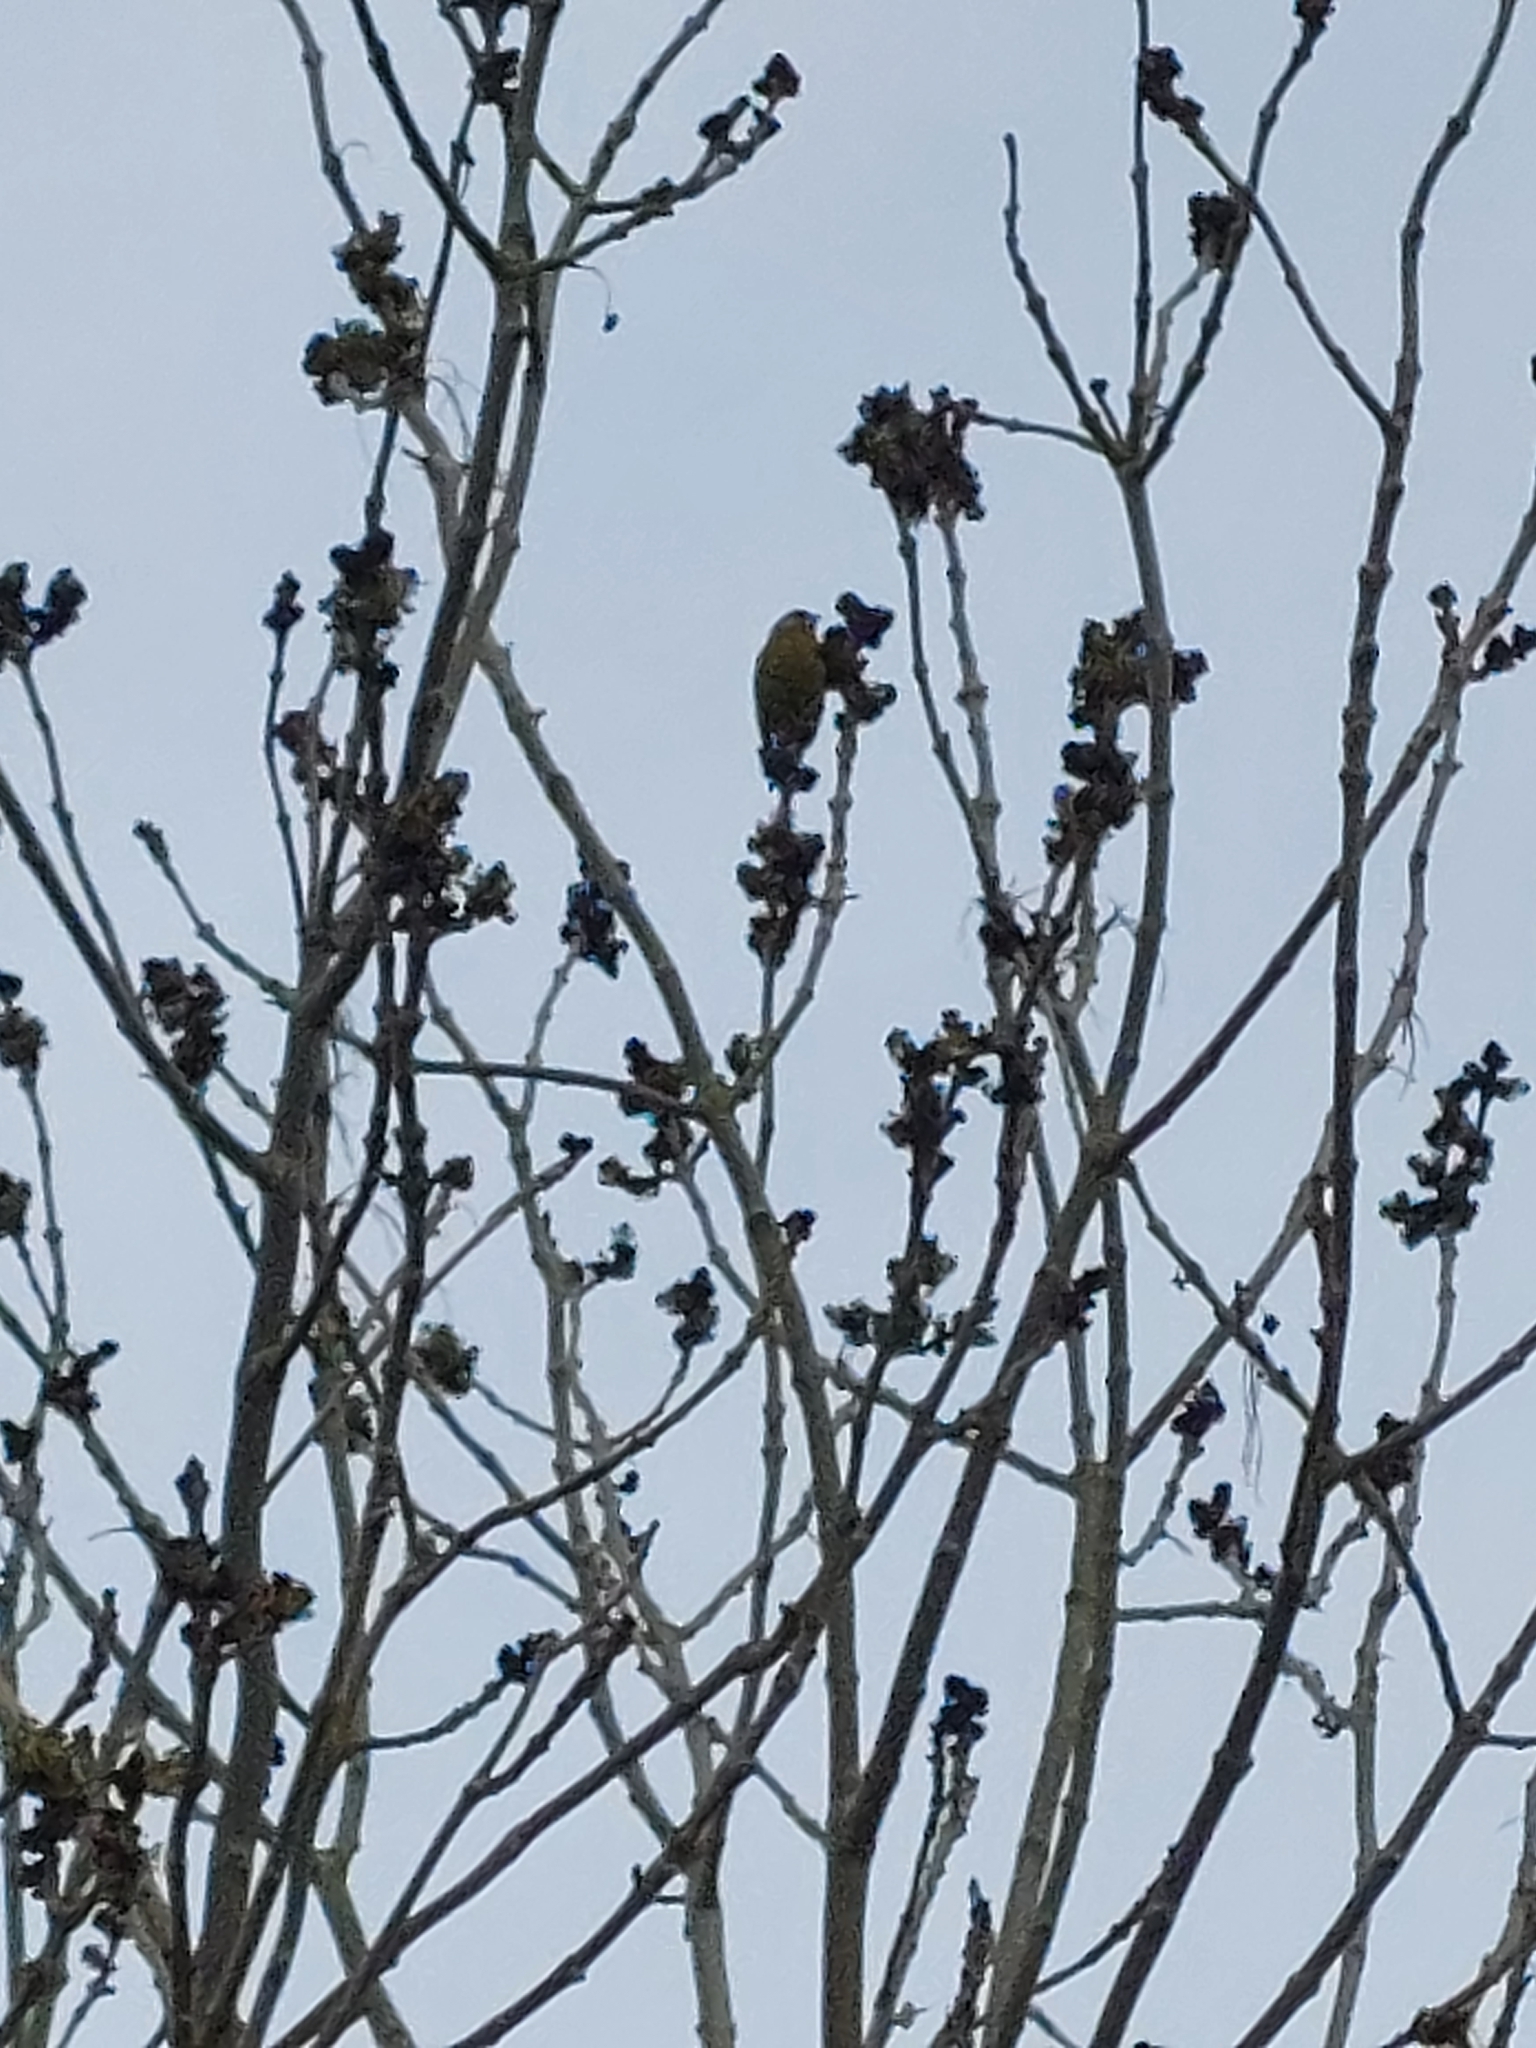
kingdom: Plantae
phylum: Tracheophyta
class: Liliopsida
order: Poales
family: Poaceae
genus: Chloris
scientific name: Chloris chloris
